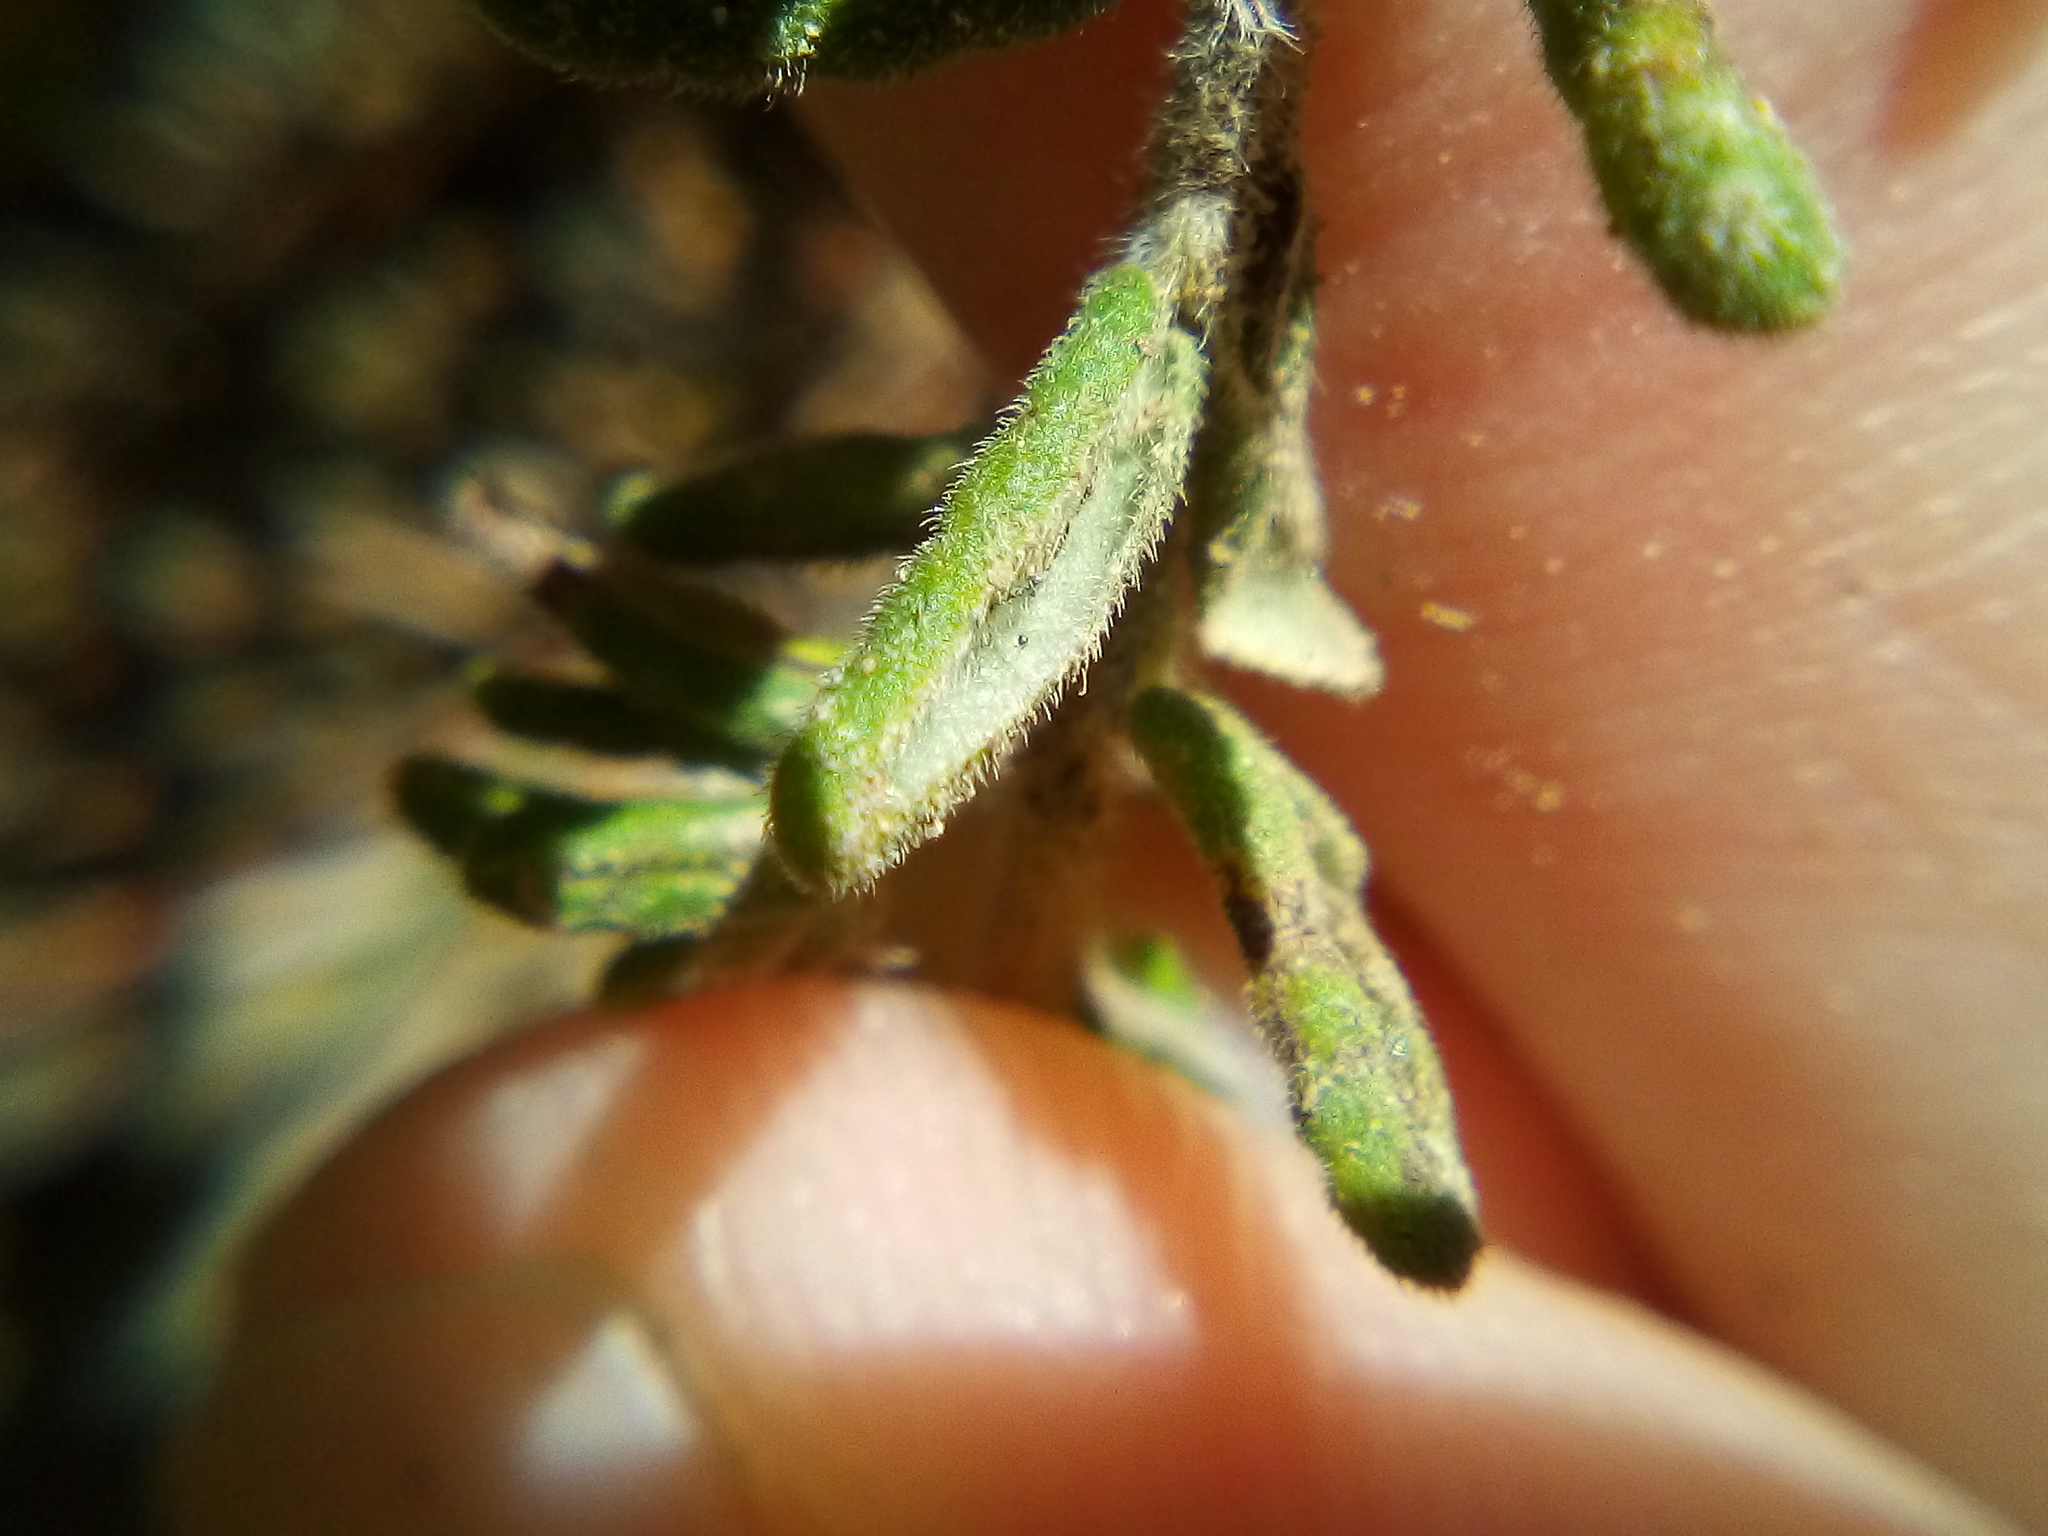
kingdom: Plantae
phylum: Tracheophyta
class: Magnoliopsida
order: Rosales
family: Rhamnaceae
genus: Pomaderris
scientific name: Pomaderris amoena
